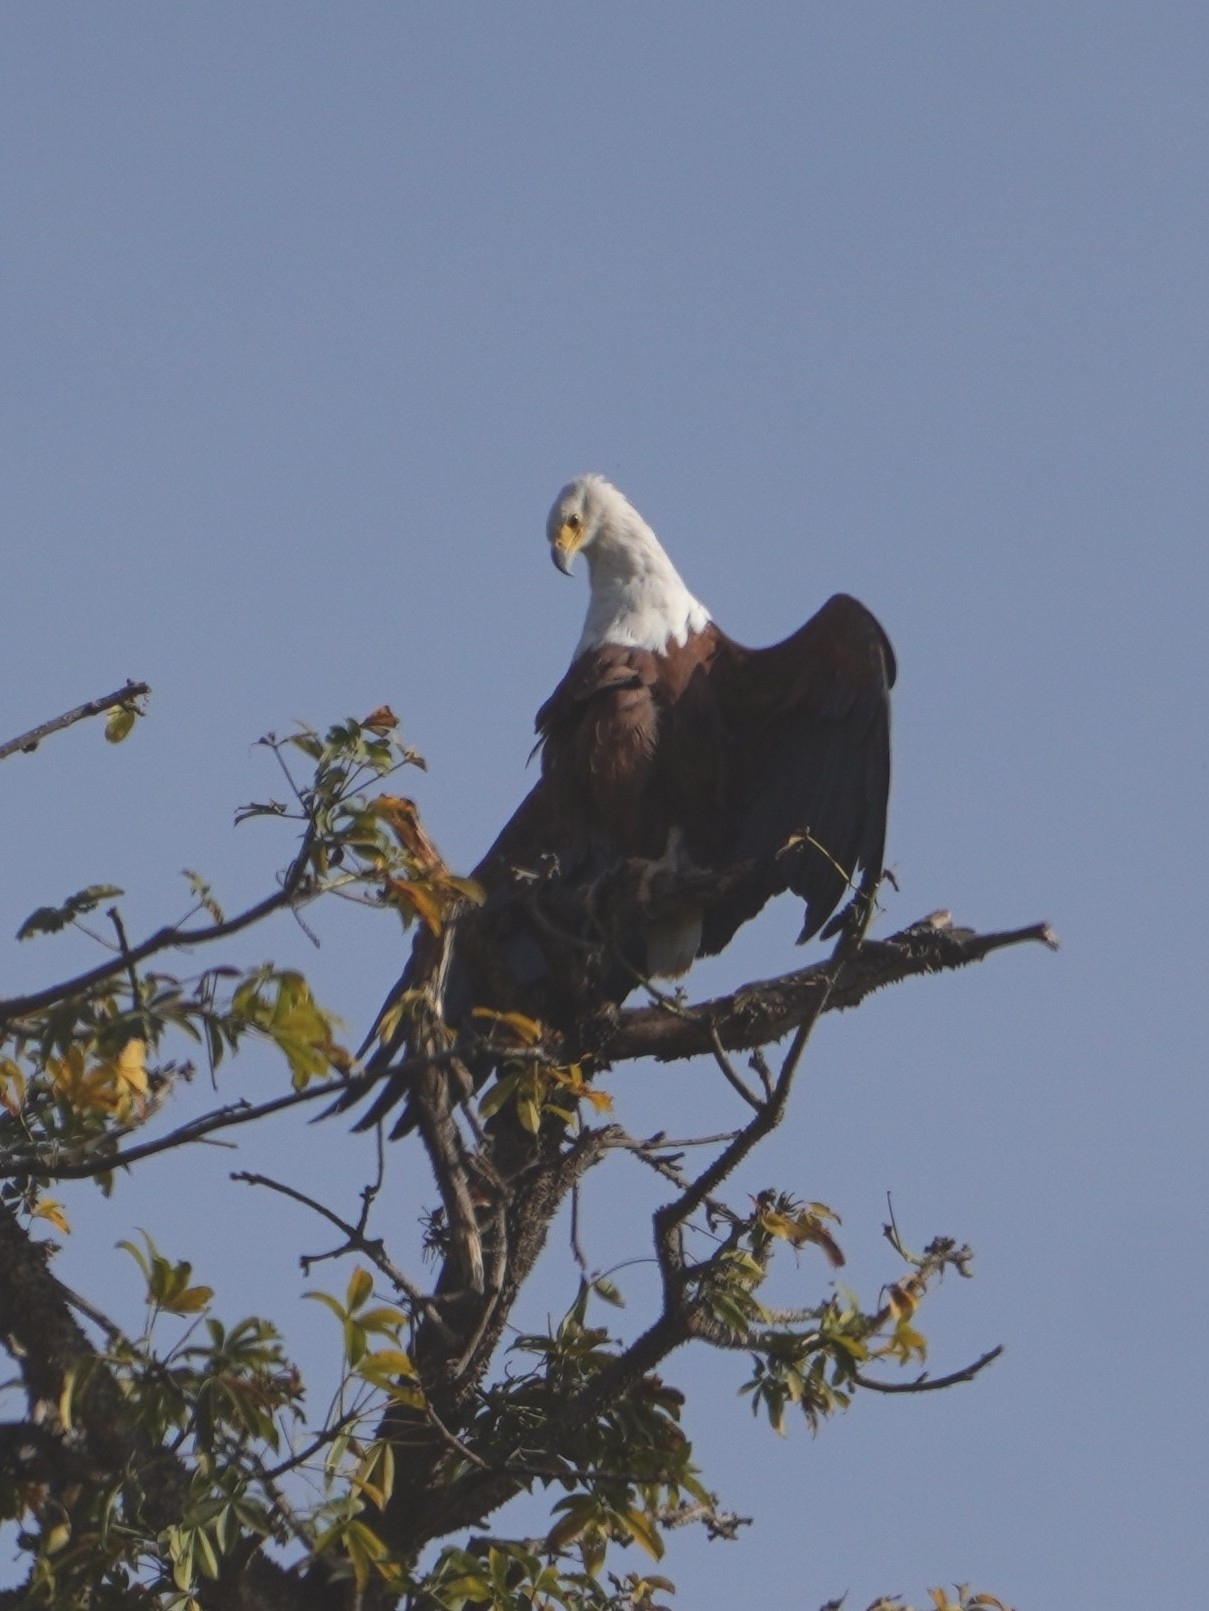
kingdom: Animalia
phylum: Chordata
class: Aves
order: Accipitriformes
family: Accipitridae
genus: Haliaeetus
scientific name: Haliaeetus vocifer
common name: African fish eagle
